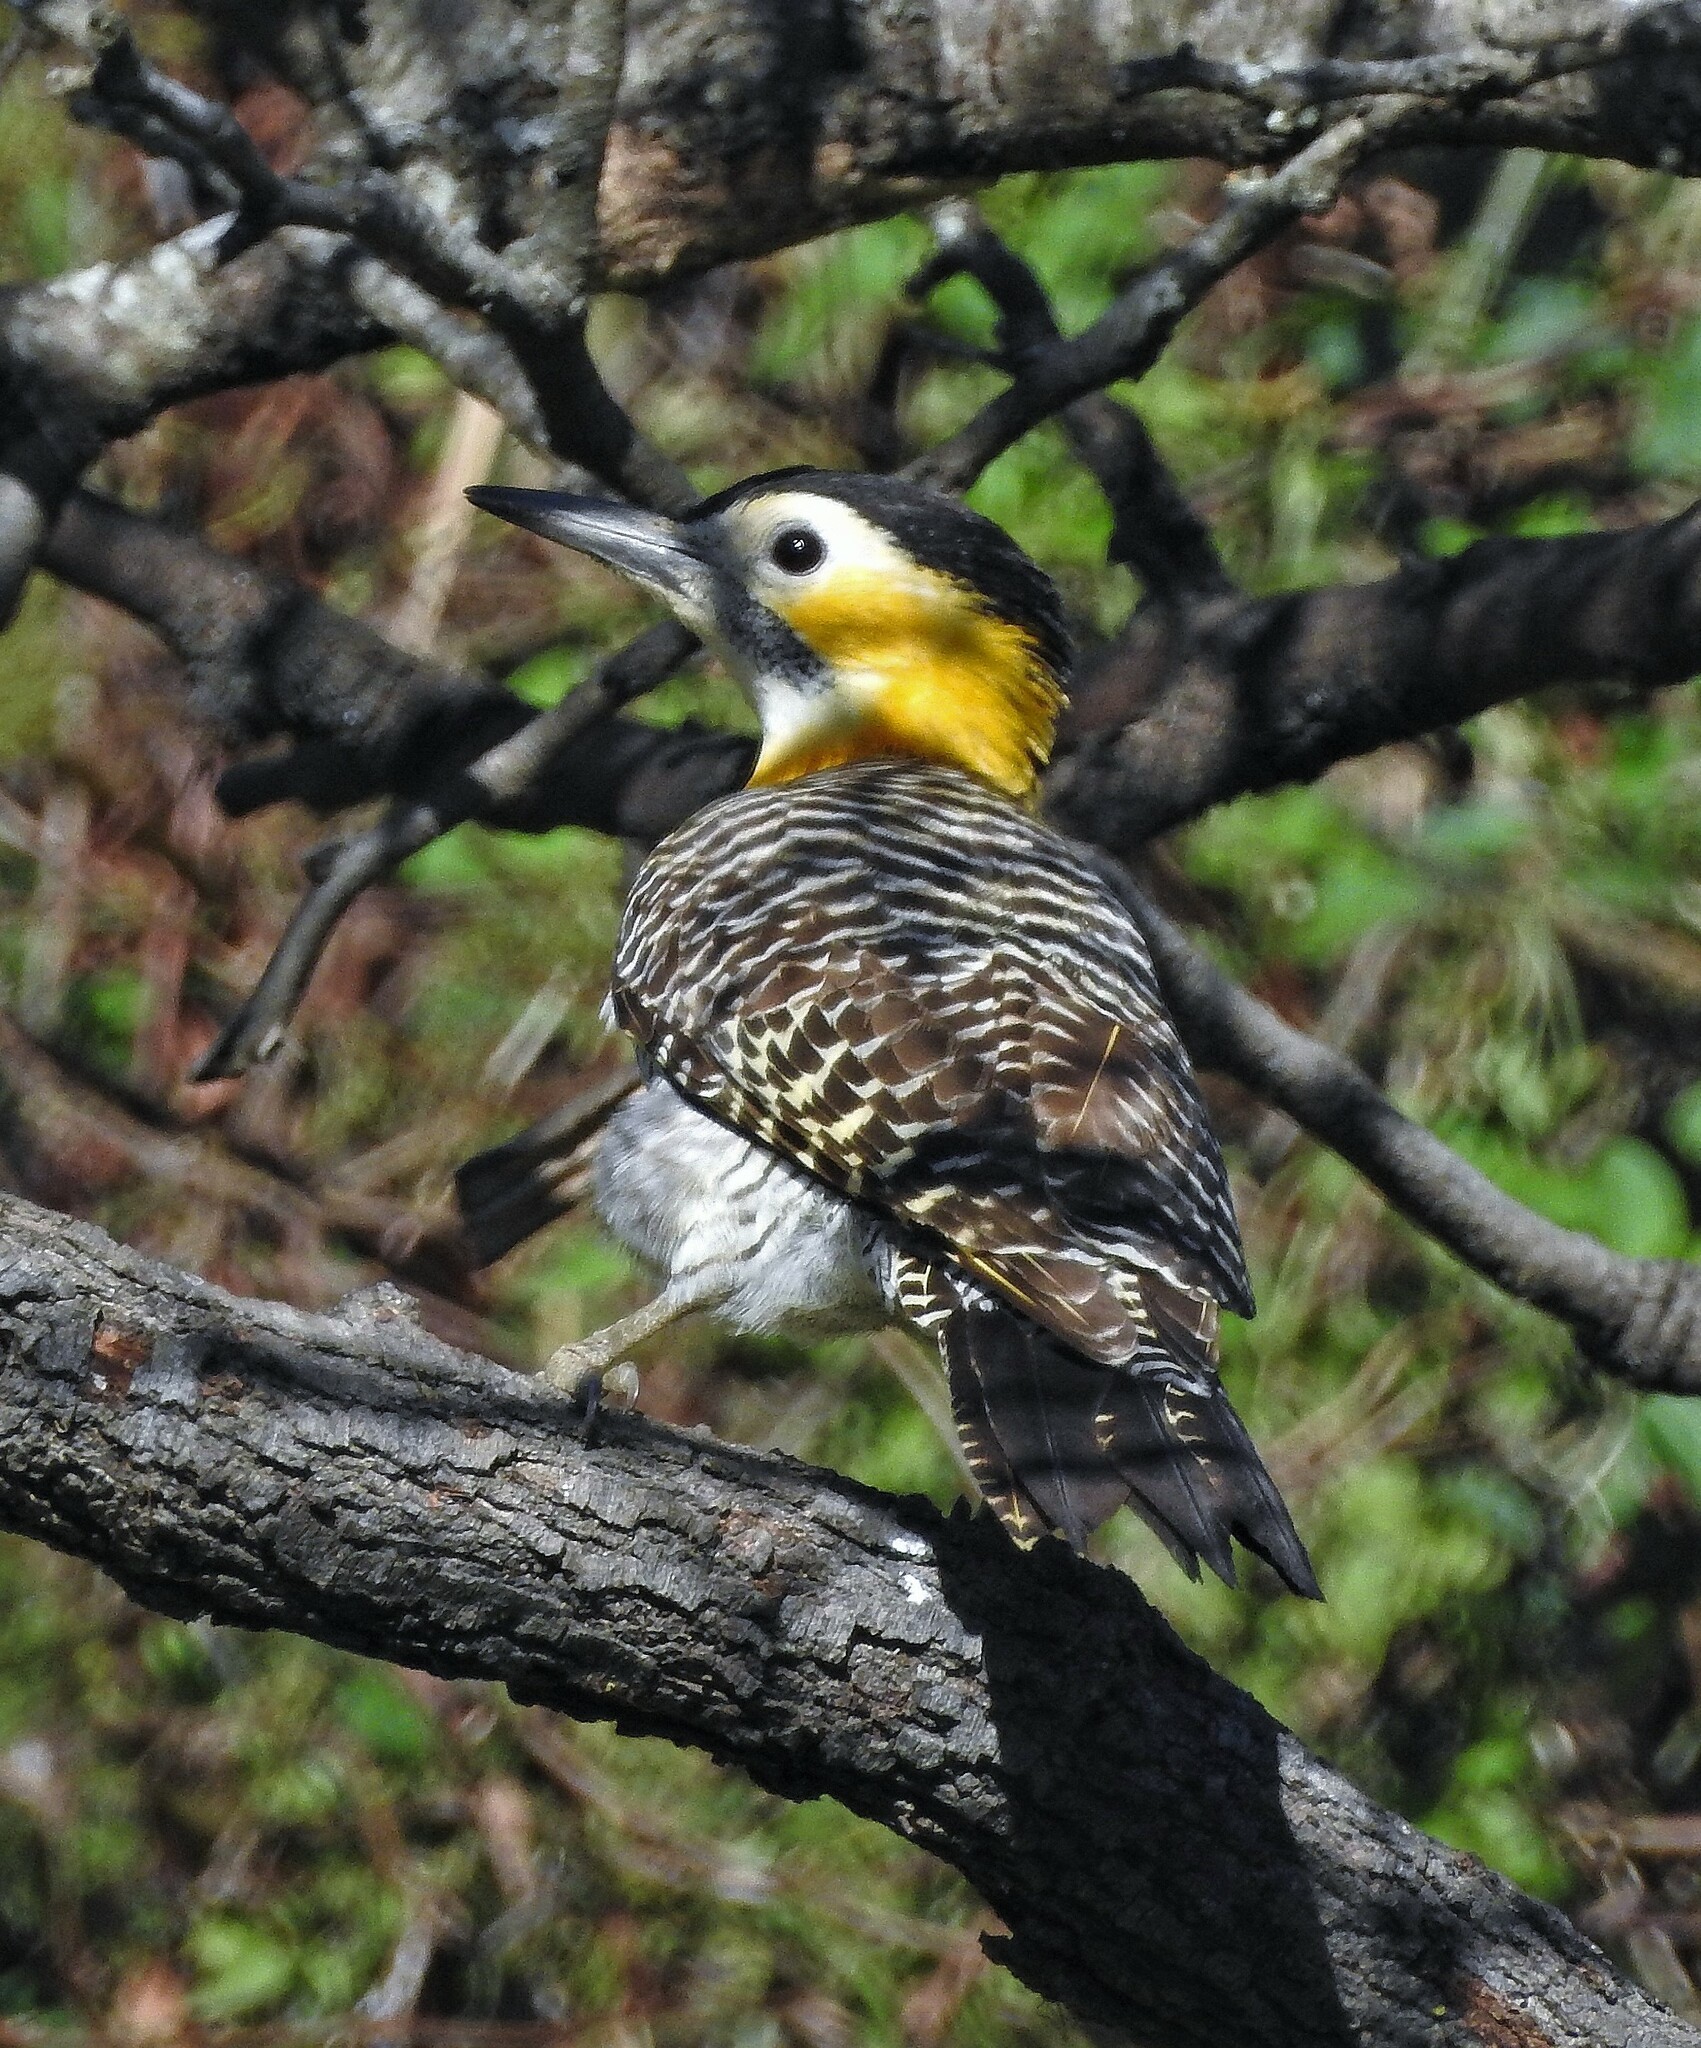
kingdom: Animalia
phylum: Chordata
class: Aves
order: Piciformes
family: Picidae
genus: Colaptes
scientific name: Colaptes campestris
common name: Campo flicker
